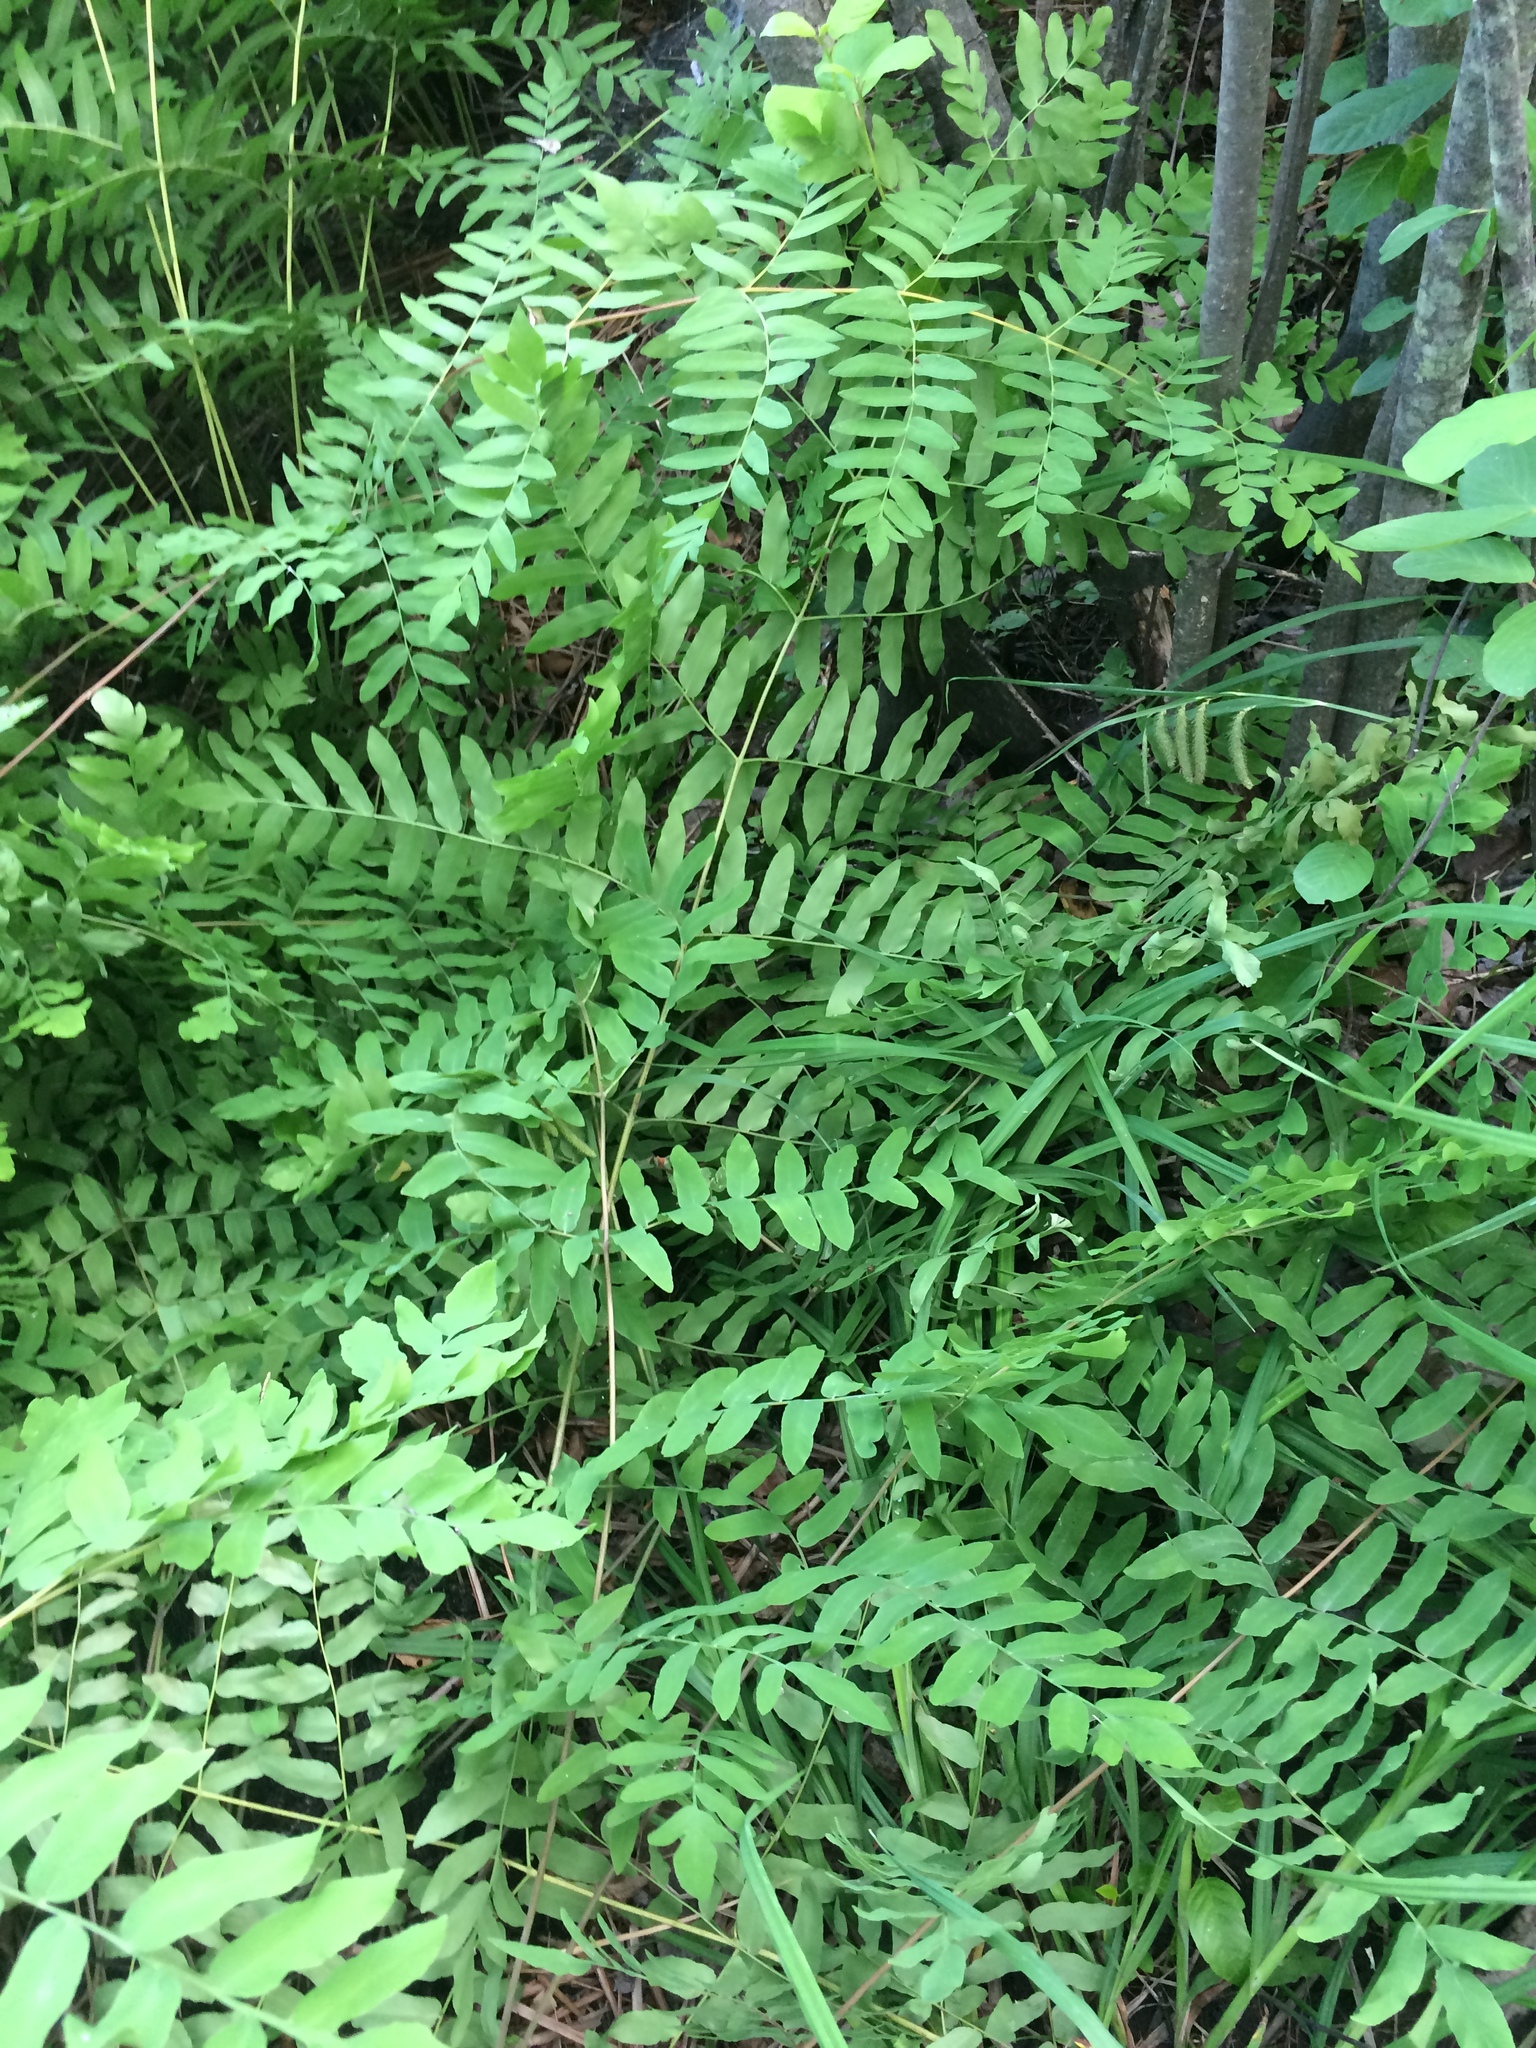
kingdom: Plantae
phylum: Tracheophyta
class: Polypodiopsida
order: Osmundales
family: Osmundaceae
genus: Osmunda
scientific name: Osmunda spectabilis
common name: American royal fern
